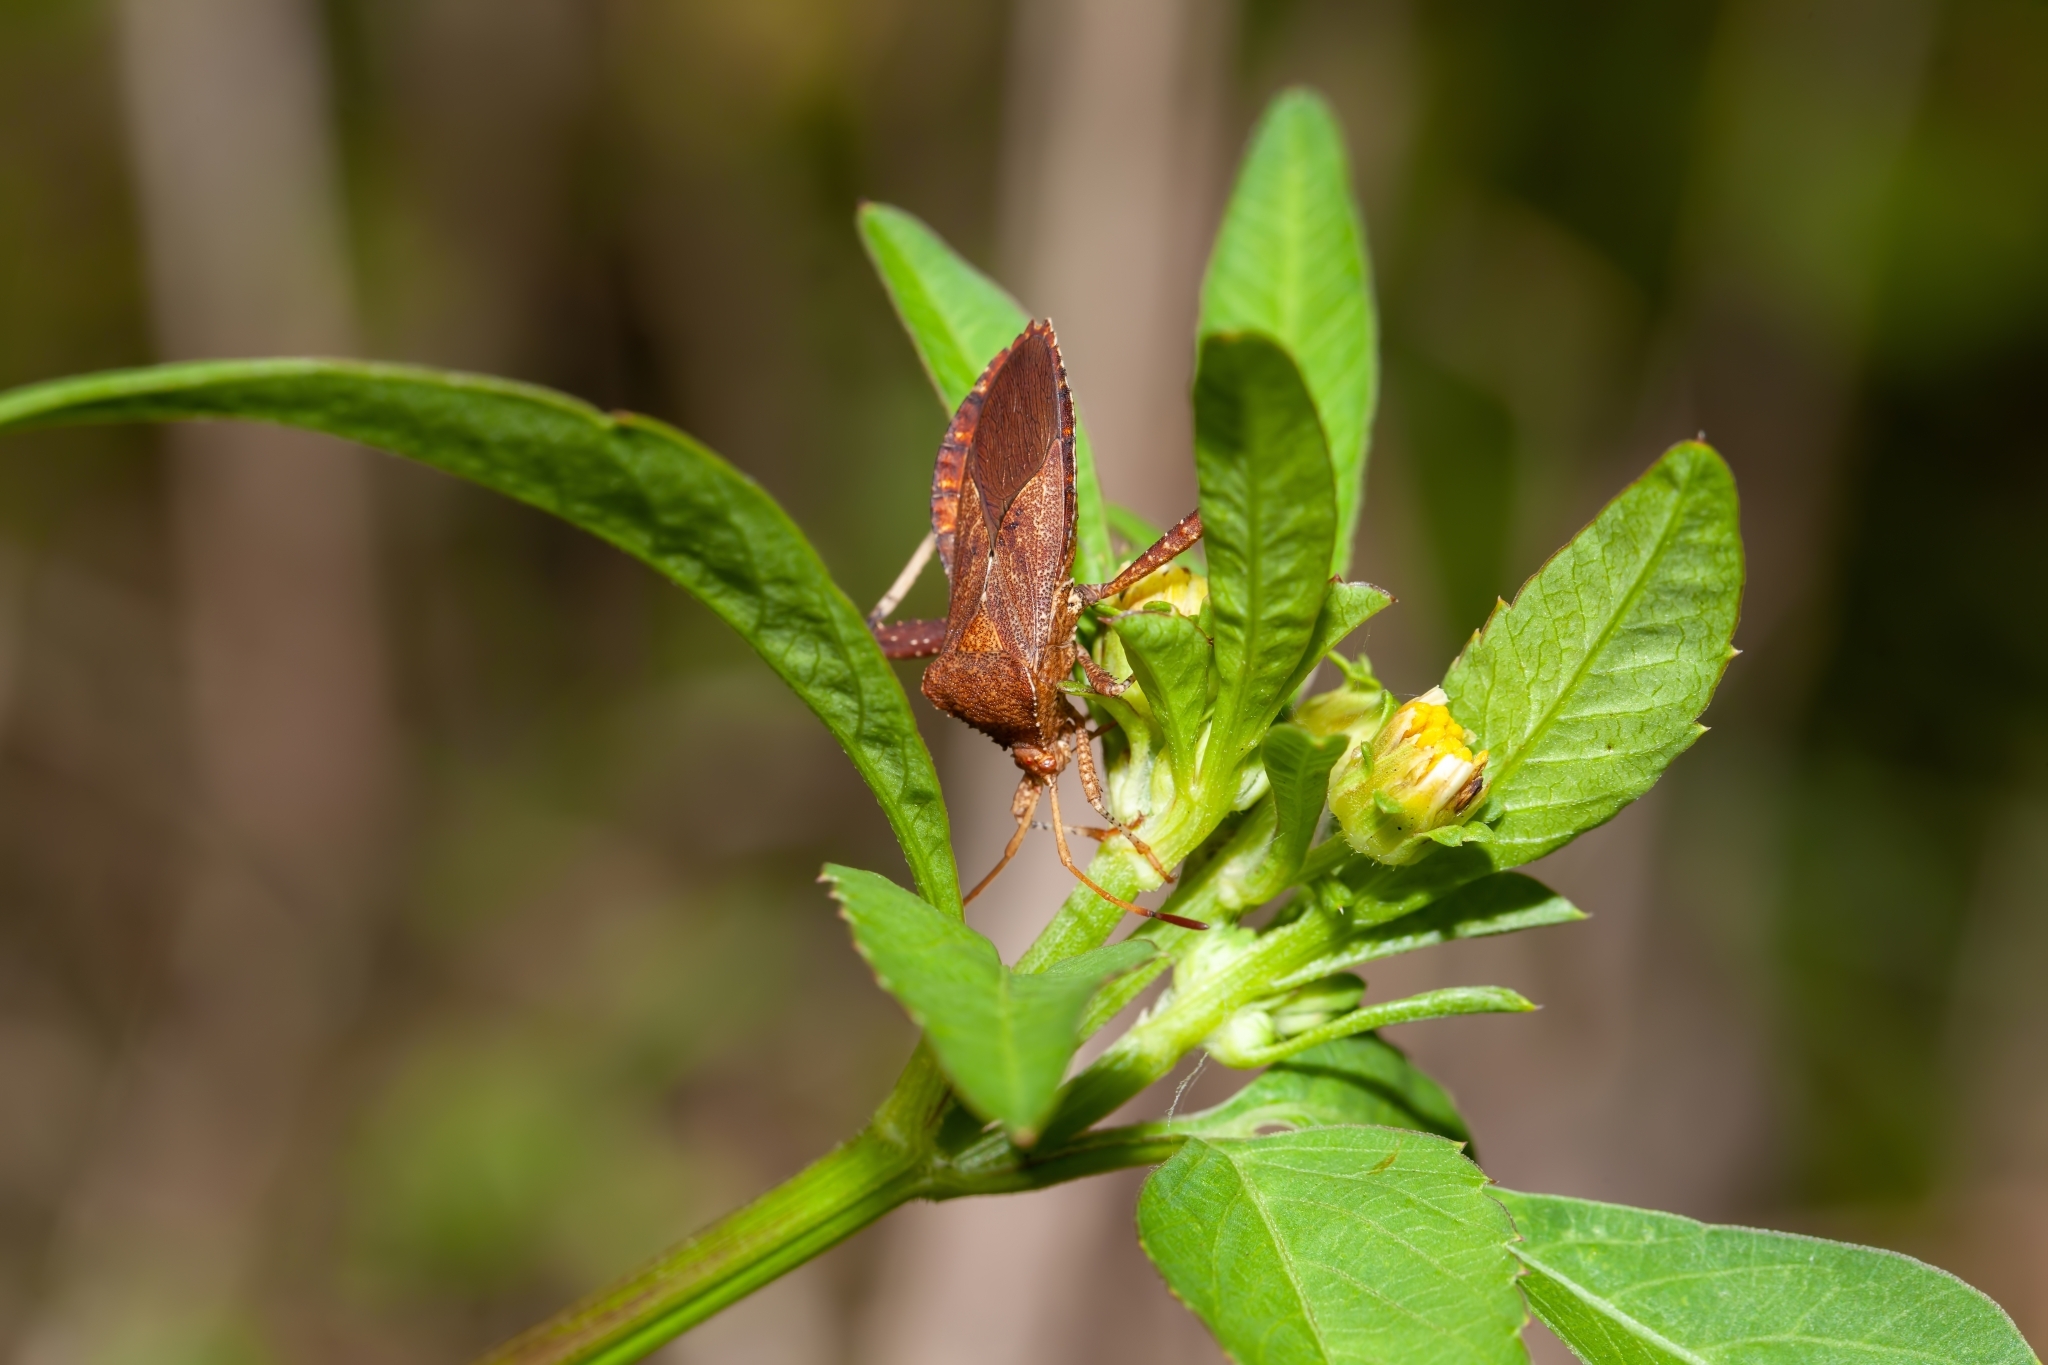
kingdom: Animalia
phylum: Arthropoda
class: Insecta
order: Hemiptera
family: Coreidae
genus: Euthochtha
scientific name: Euthochtha galeator
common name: Helmeted squash bug
